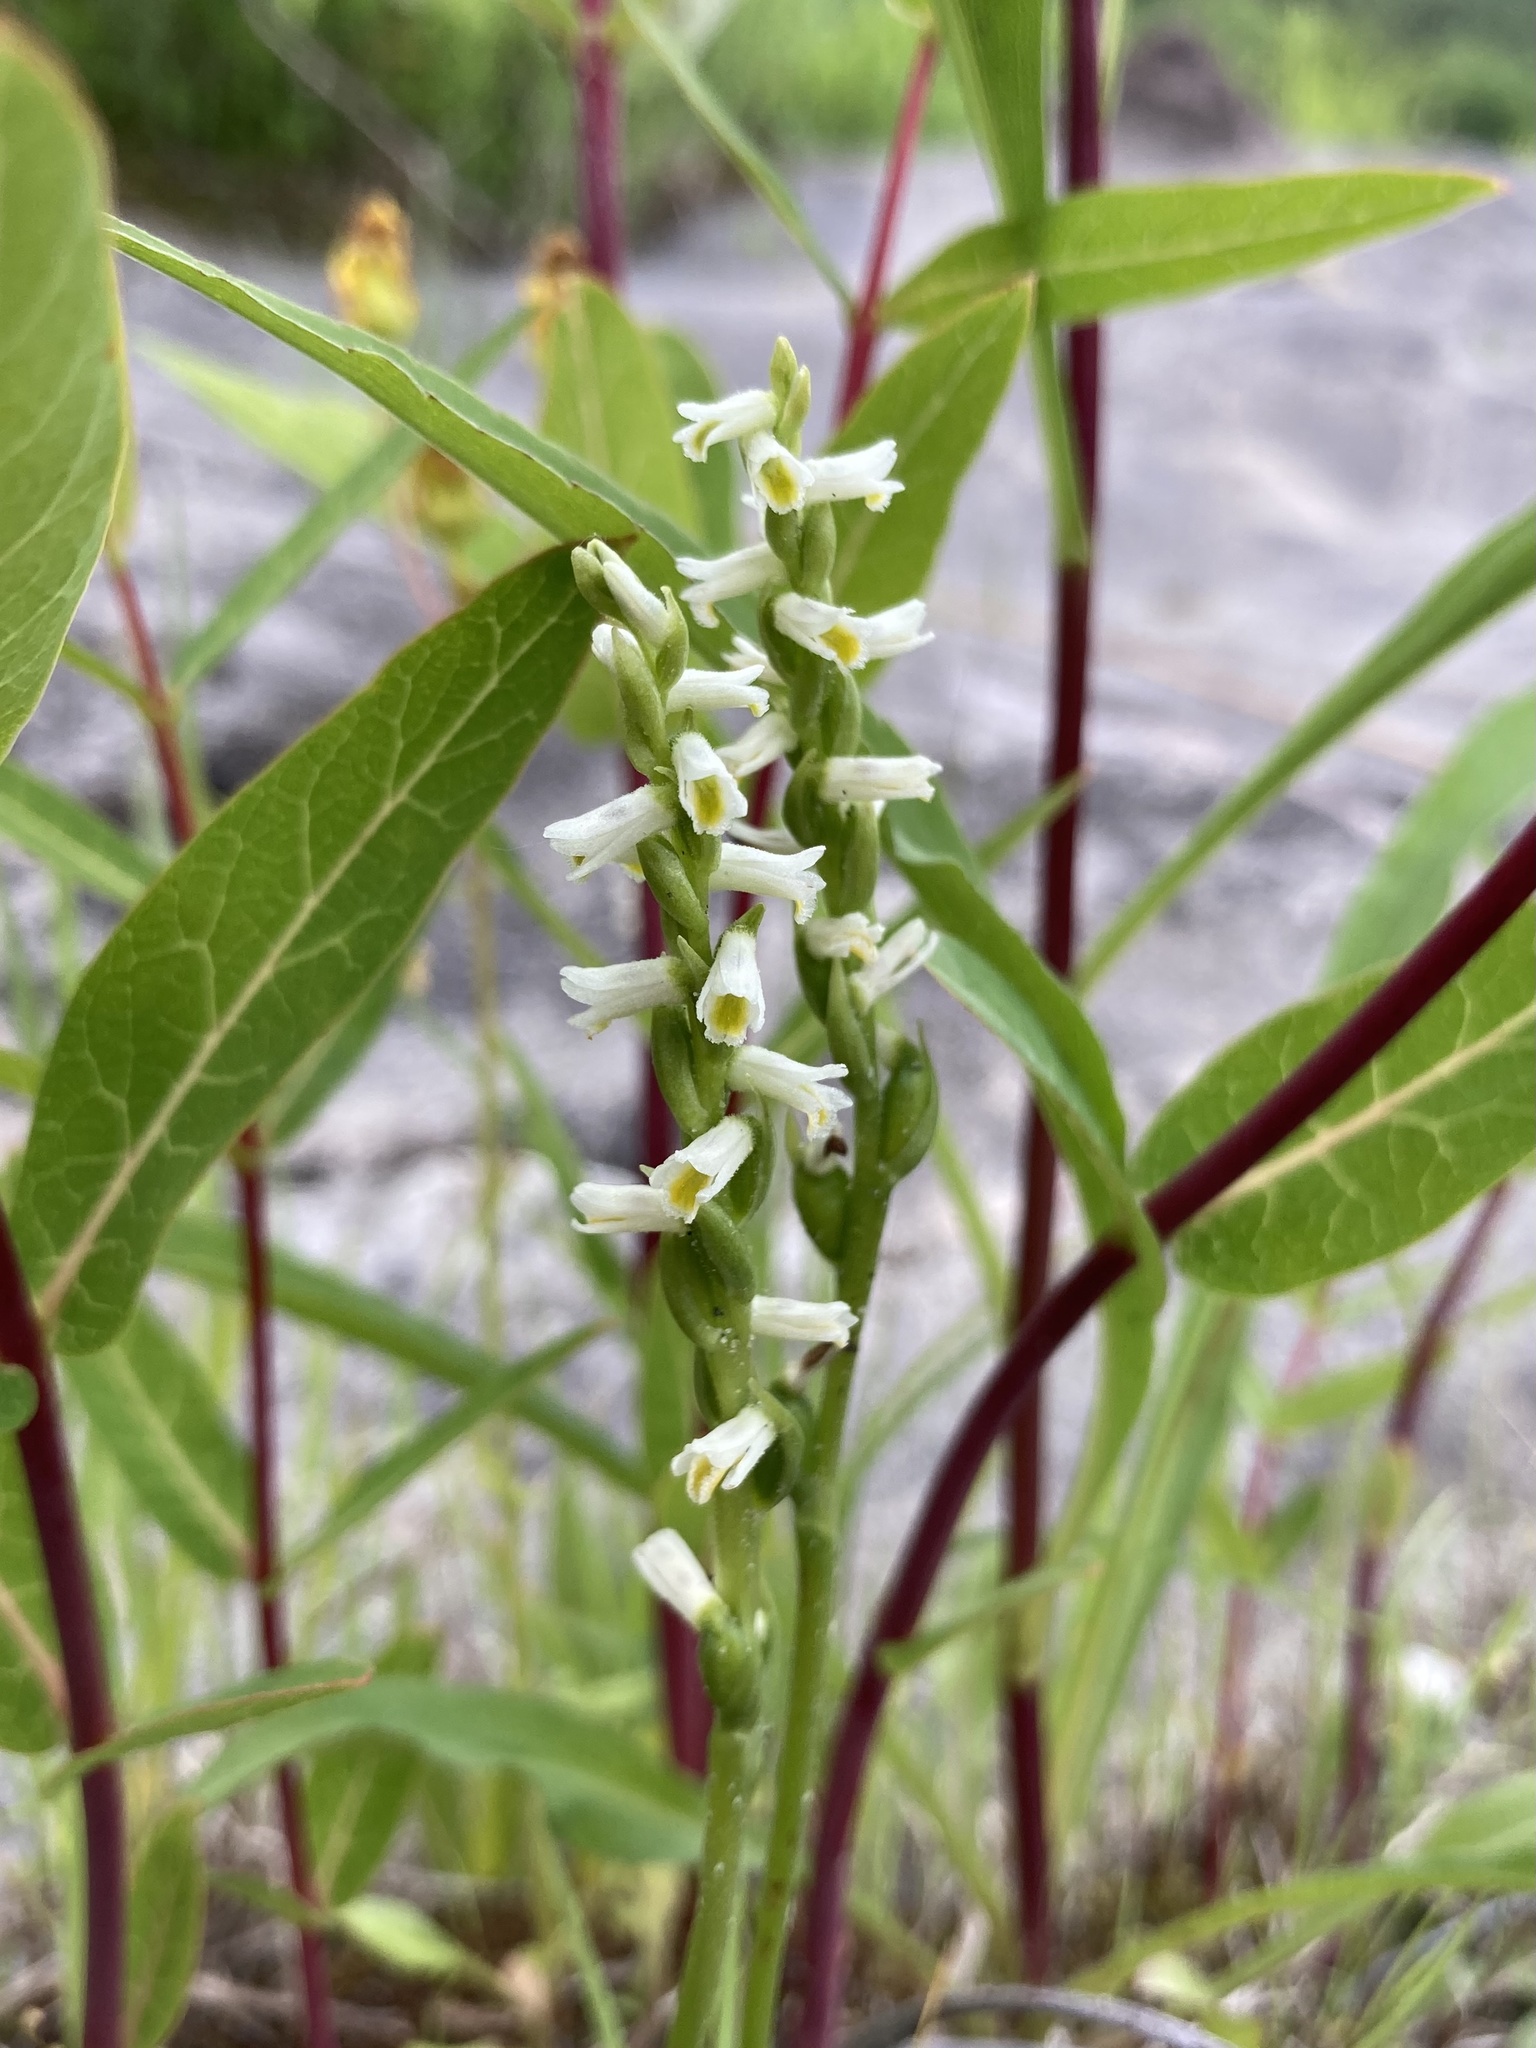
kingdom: Plantae
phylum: Tracheophyta
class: Liliopsida
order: Asparagales
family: Orchidaceae
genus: Spiranthes
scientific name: Spiranthes lucida
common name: Broad-leaved ladies'-tresses
